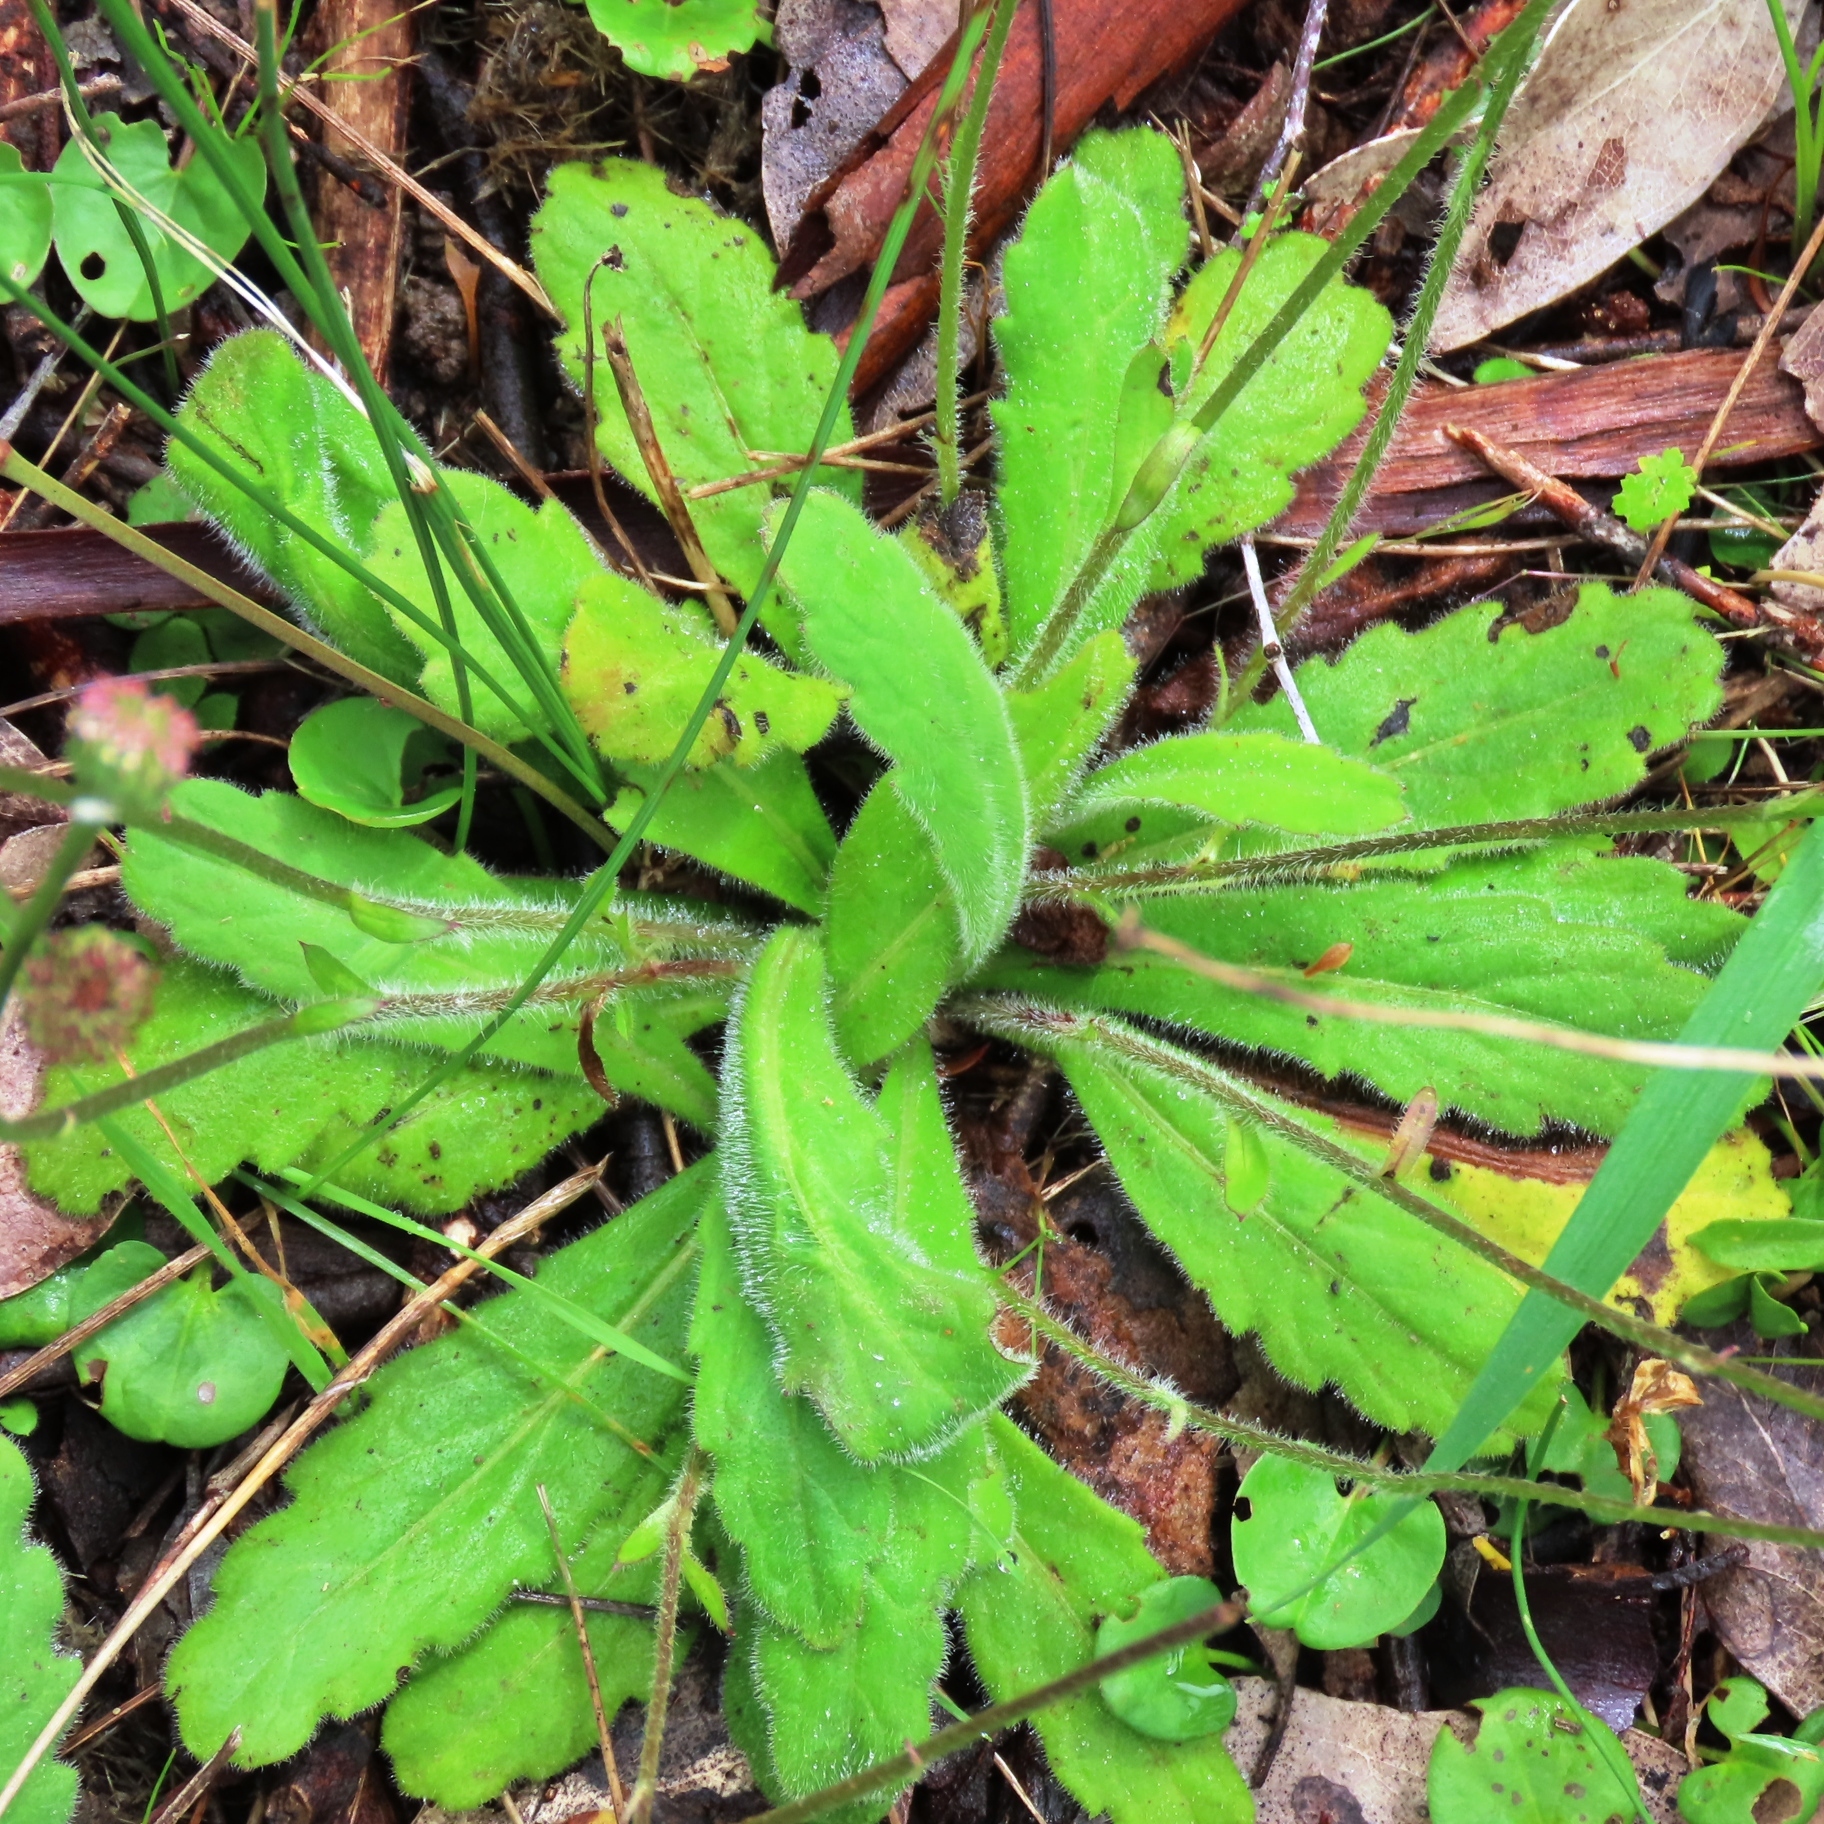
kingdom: Plantae
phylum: Tracheophyta
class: Magnoliopsida
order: Asterales
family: Asteraceae
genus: Lagenophora
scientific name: Lagenophora huegelii
